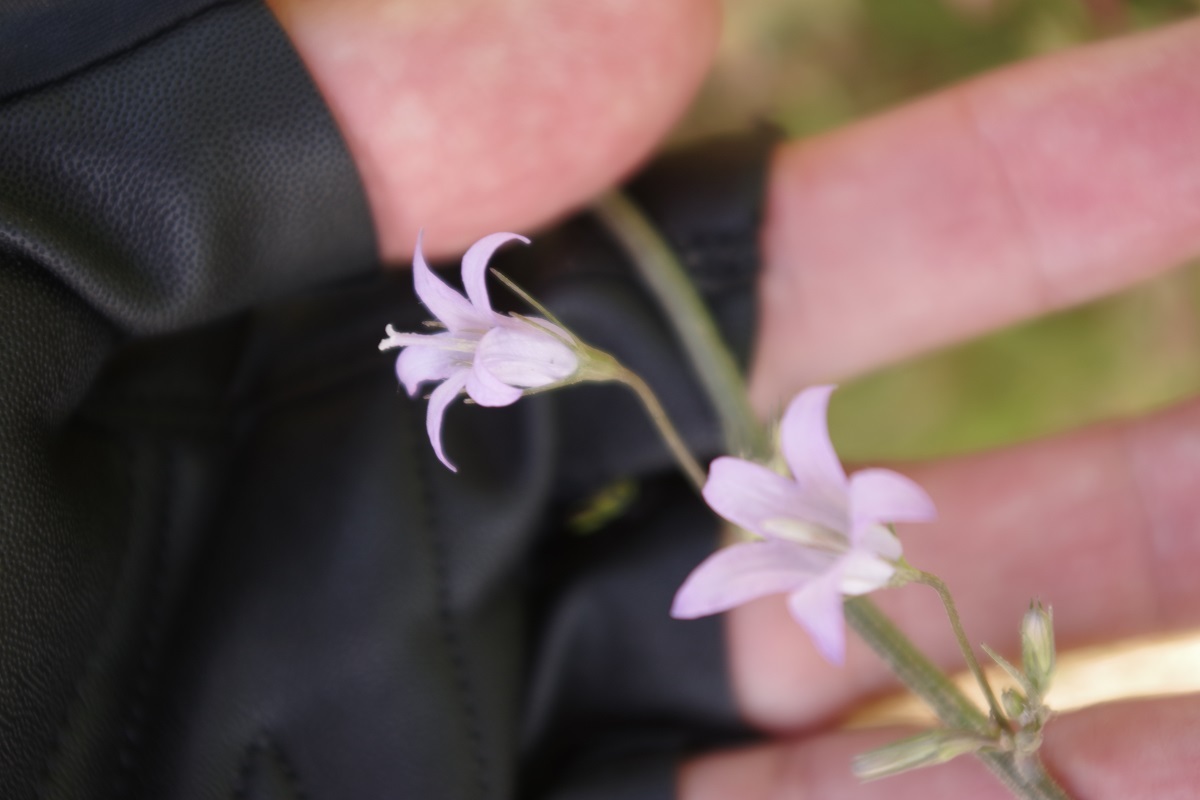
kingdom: Plantae
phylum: Tracheophyta
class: Magnoliopsida
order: Asterales
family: Campanulaceae
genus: Campanula
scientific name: Campanula rapunculus
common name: Rampion bellflower
